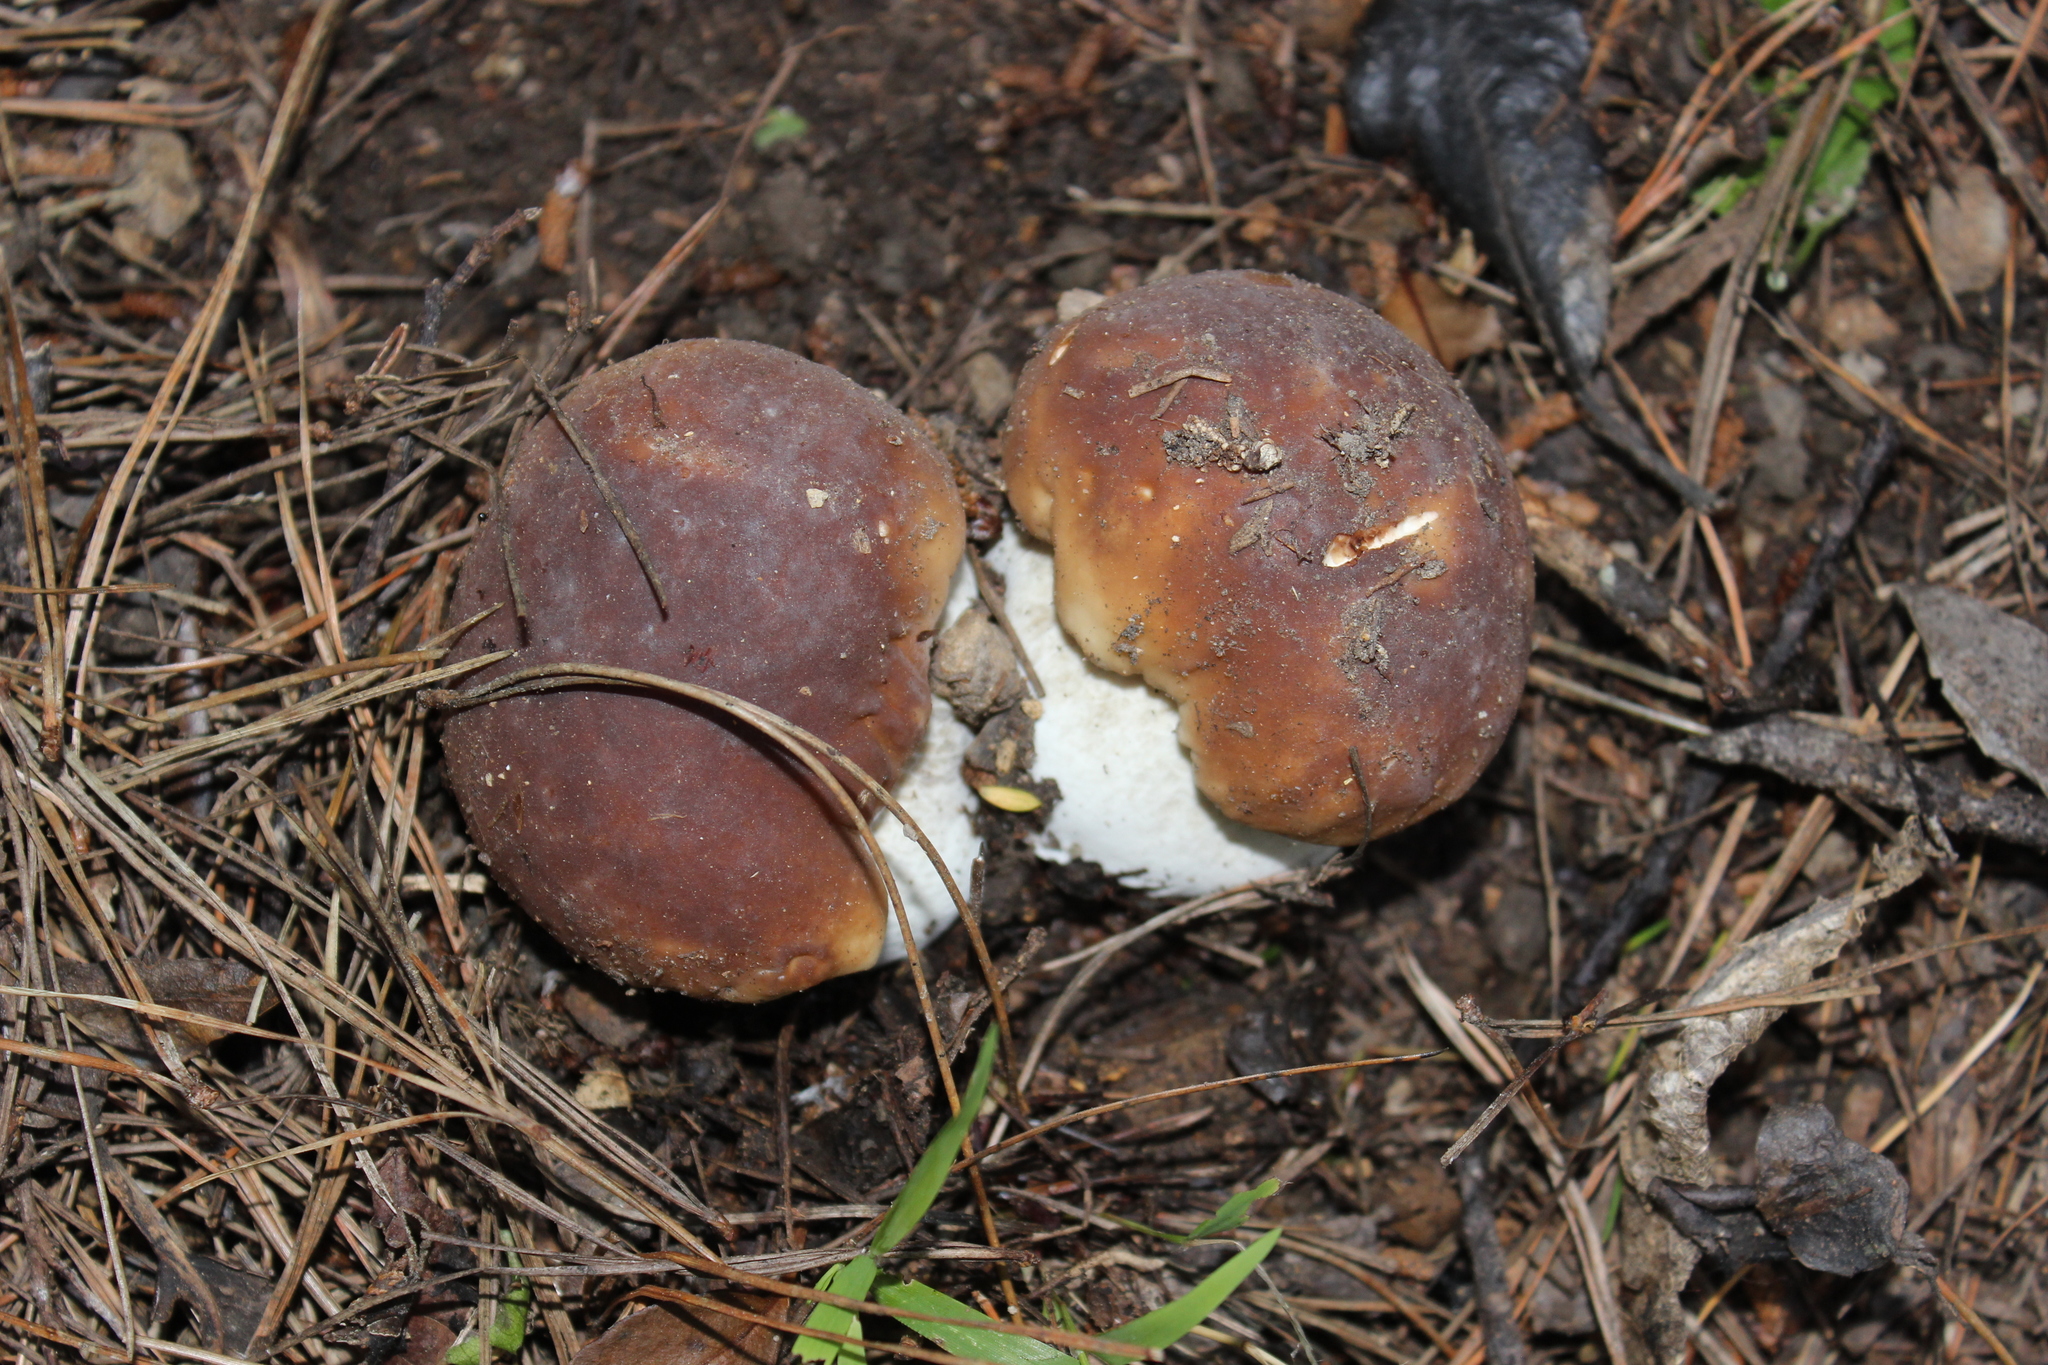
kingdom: Fungi
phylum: Basidiomycota
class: Agaricomycetes
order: Boletales
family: Boletaceae
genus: Boletus
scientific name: Boletus edulis
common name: Cep
